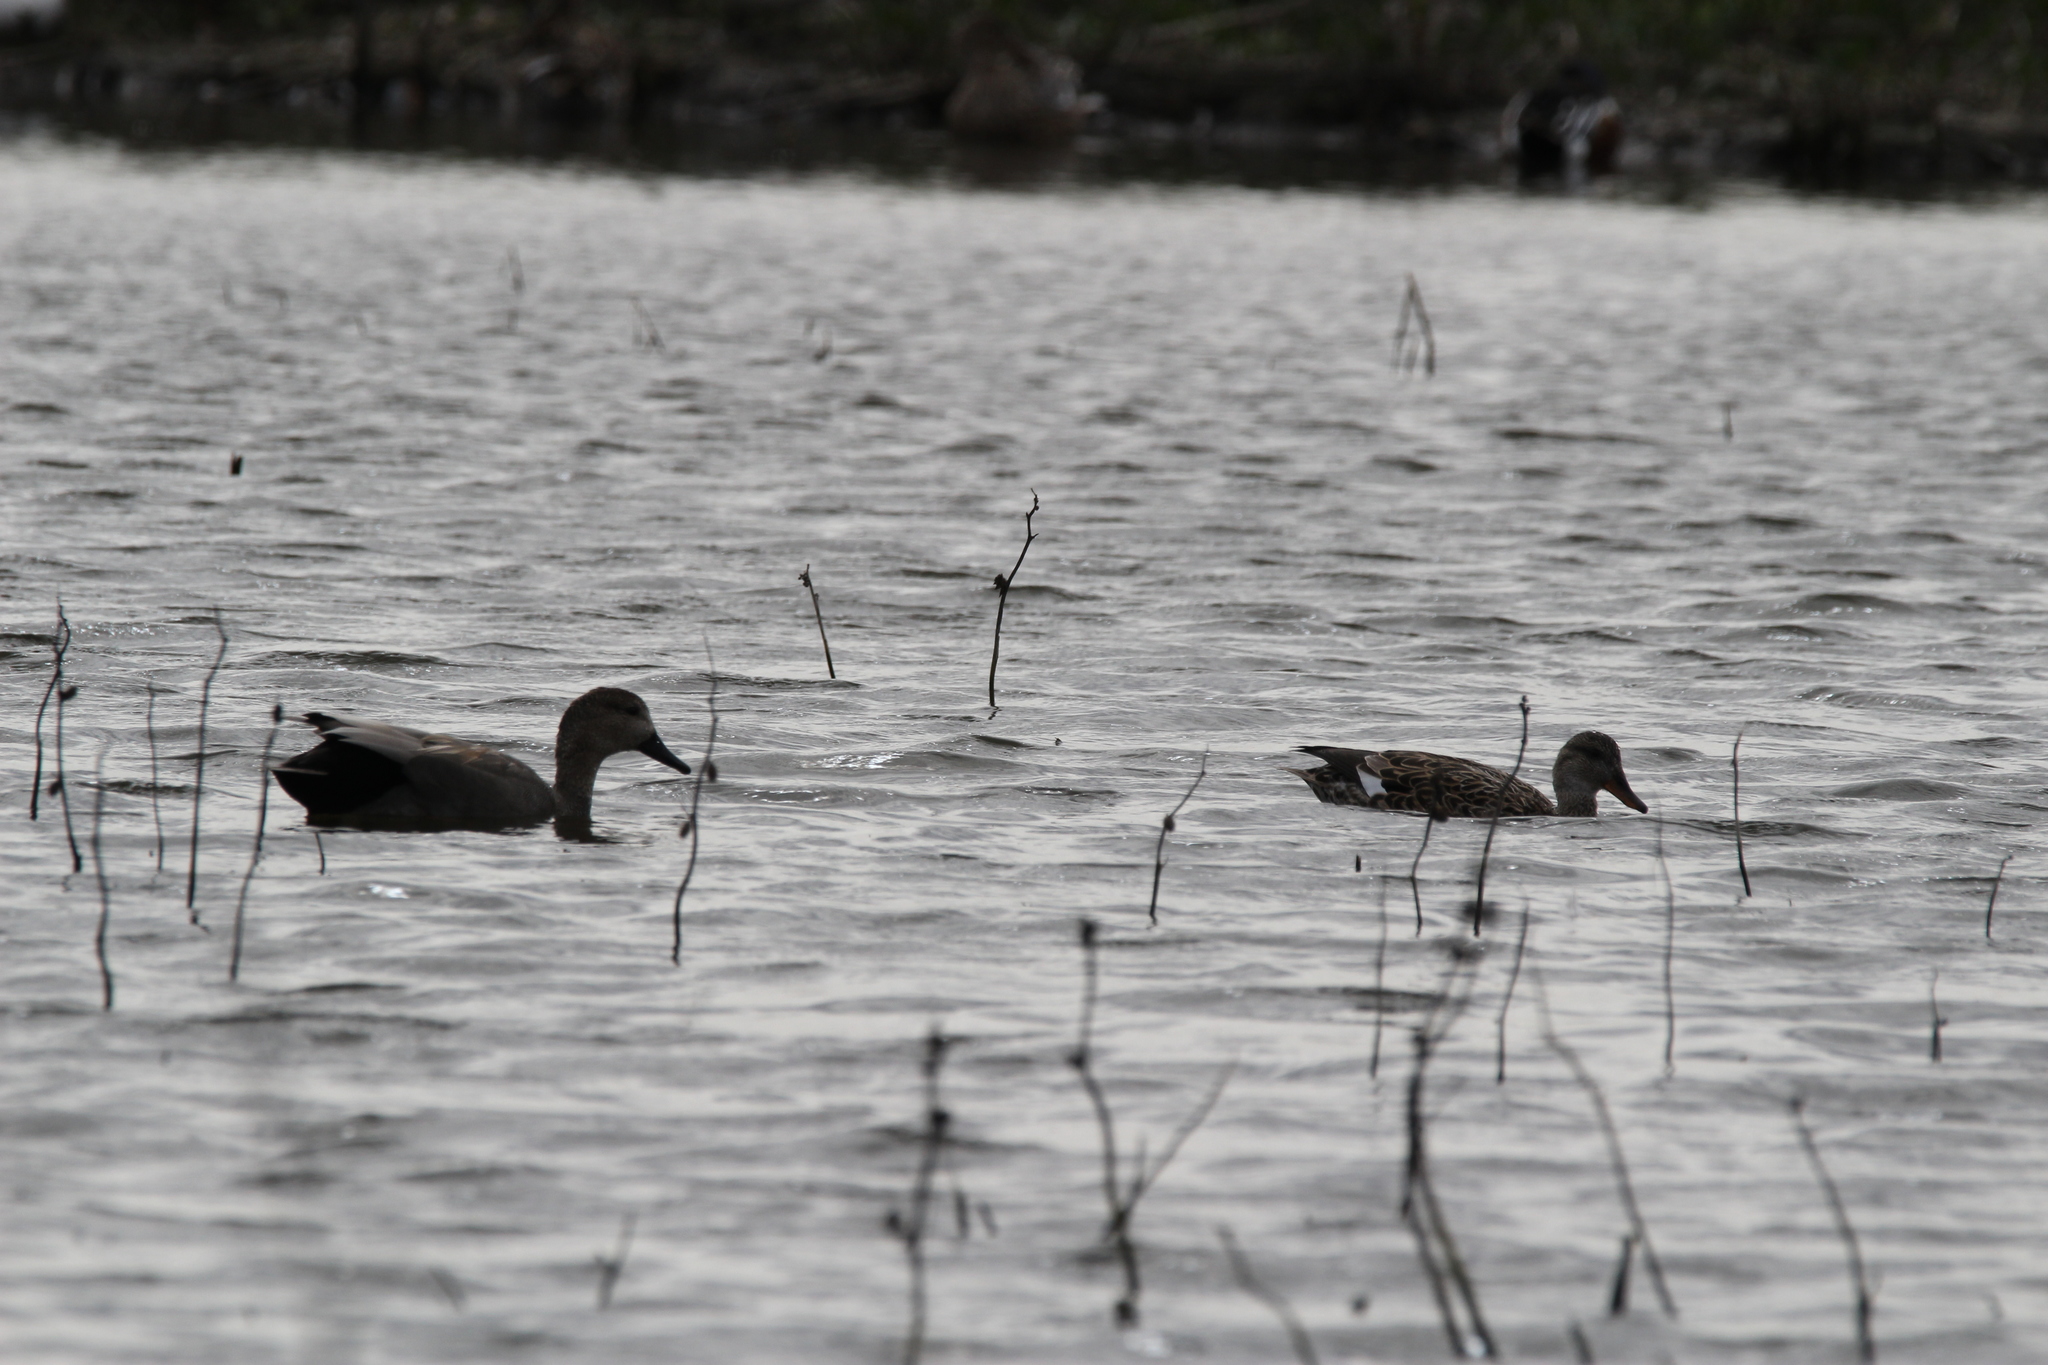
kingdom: Animalia
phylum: Chordata
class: Aves
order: Anseriformes
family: Anatidae
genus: Mareca
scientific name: Mareca strepera
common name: Gadwall
